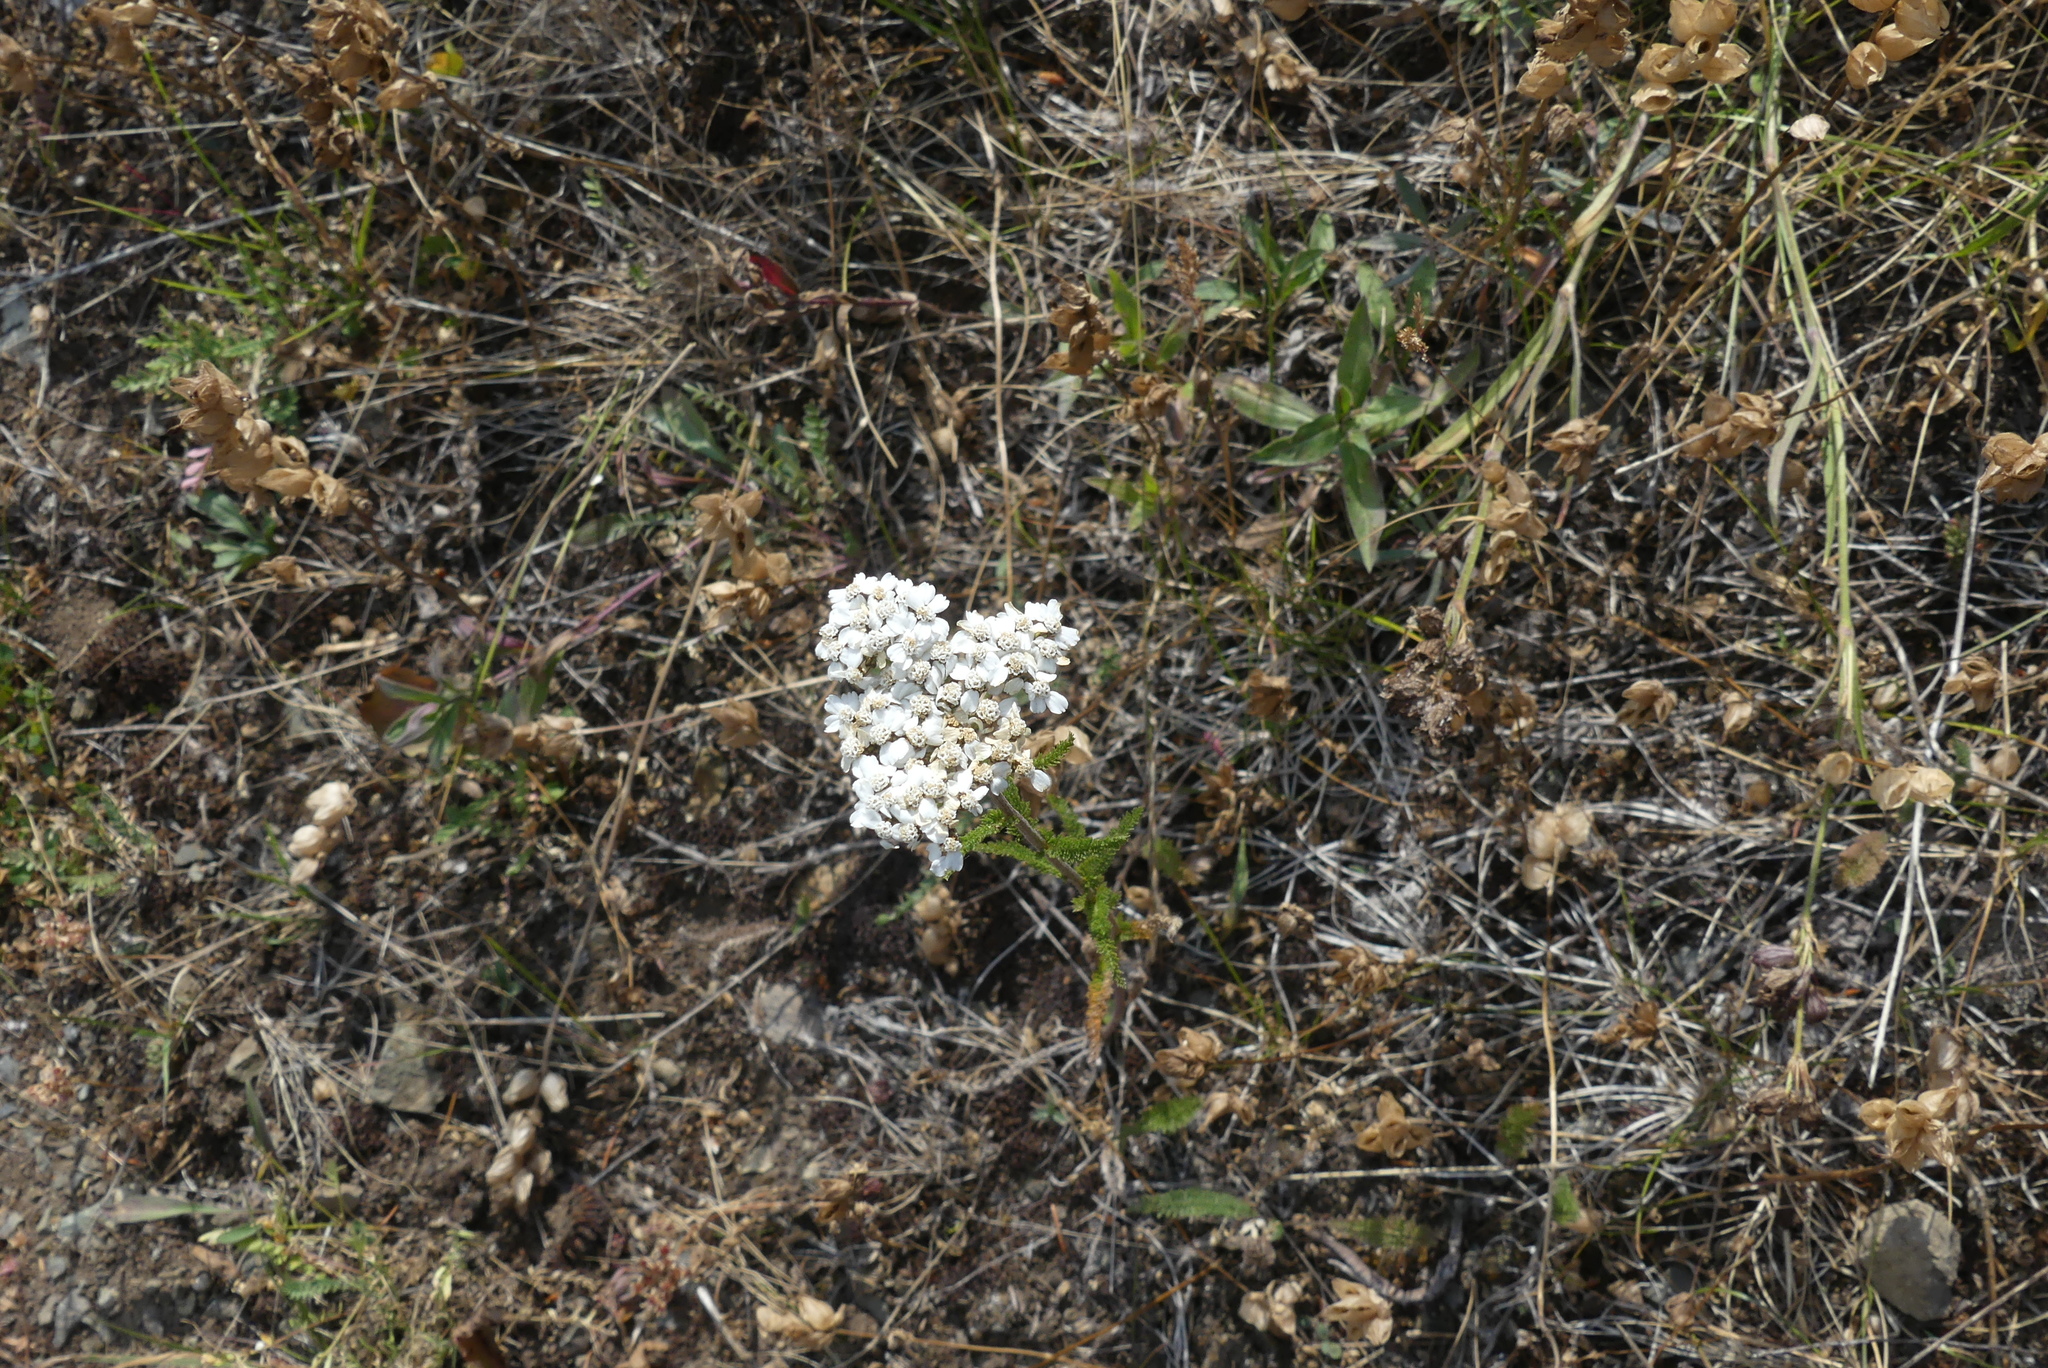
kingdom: Plantae
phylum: Tracheophyta
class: Magnoliopsida
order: Asterales
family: Asteraceae
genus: Achillea
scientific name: Achillea millefolium
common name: Yarrow
